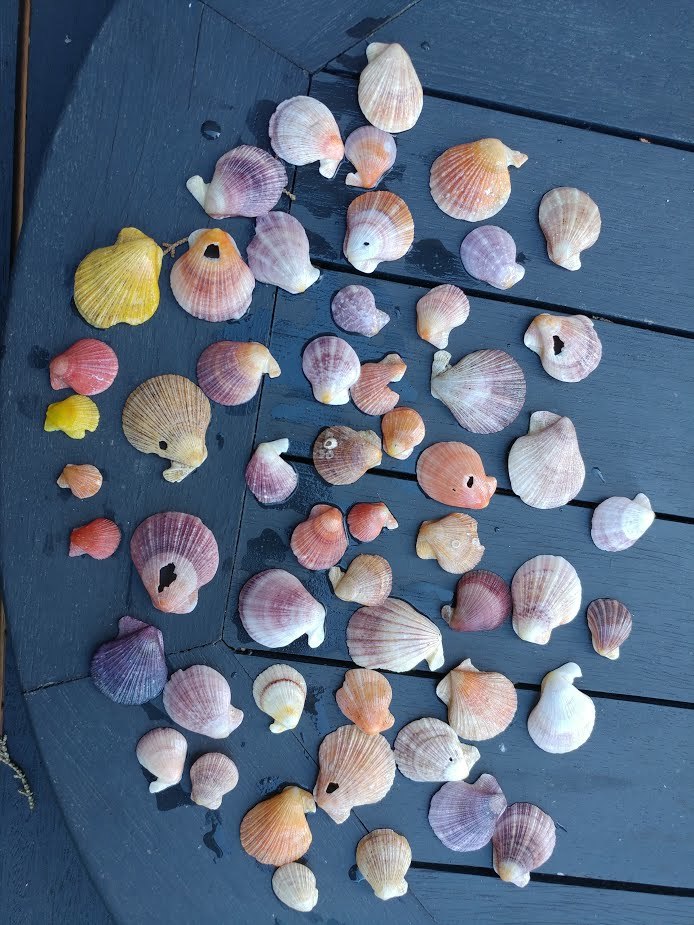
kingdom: Animalia
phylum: Mollusca
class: Bivalvia
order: Pectinida
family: Pectinidae
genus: Talochlamys
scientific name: Talochlamys zelandiae
